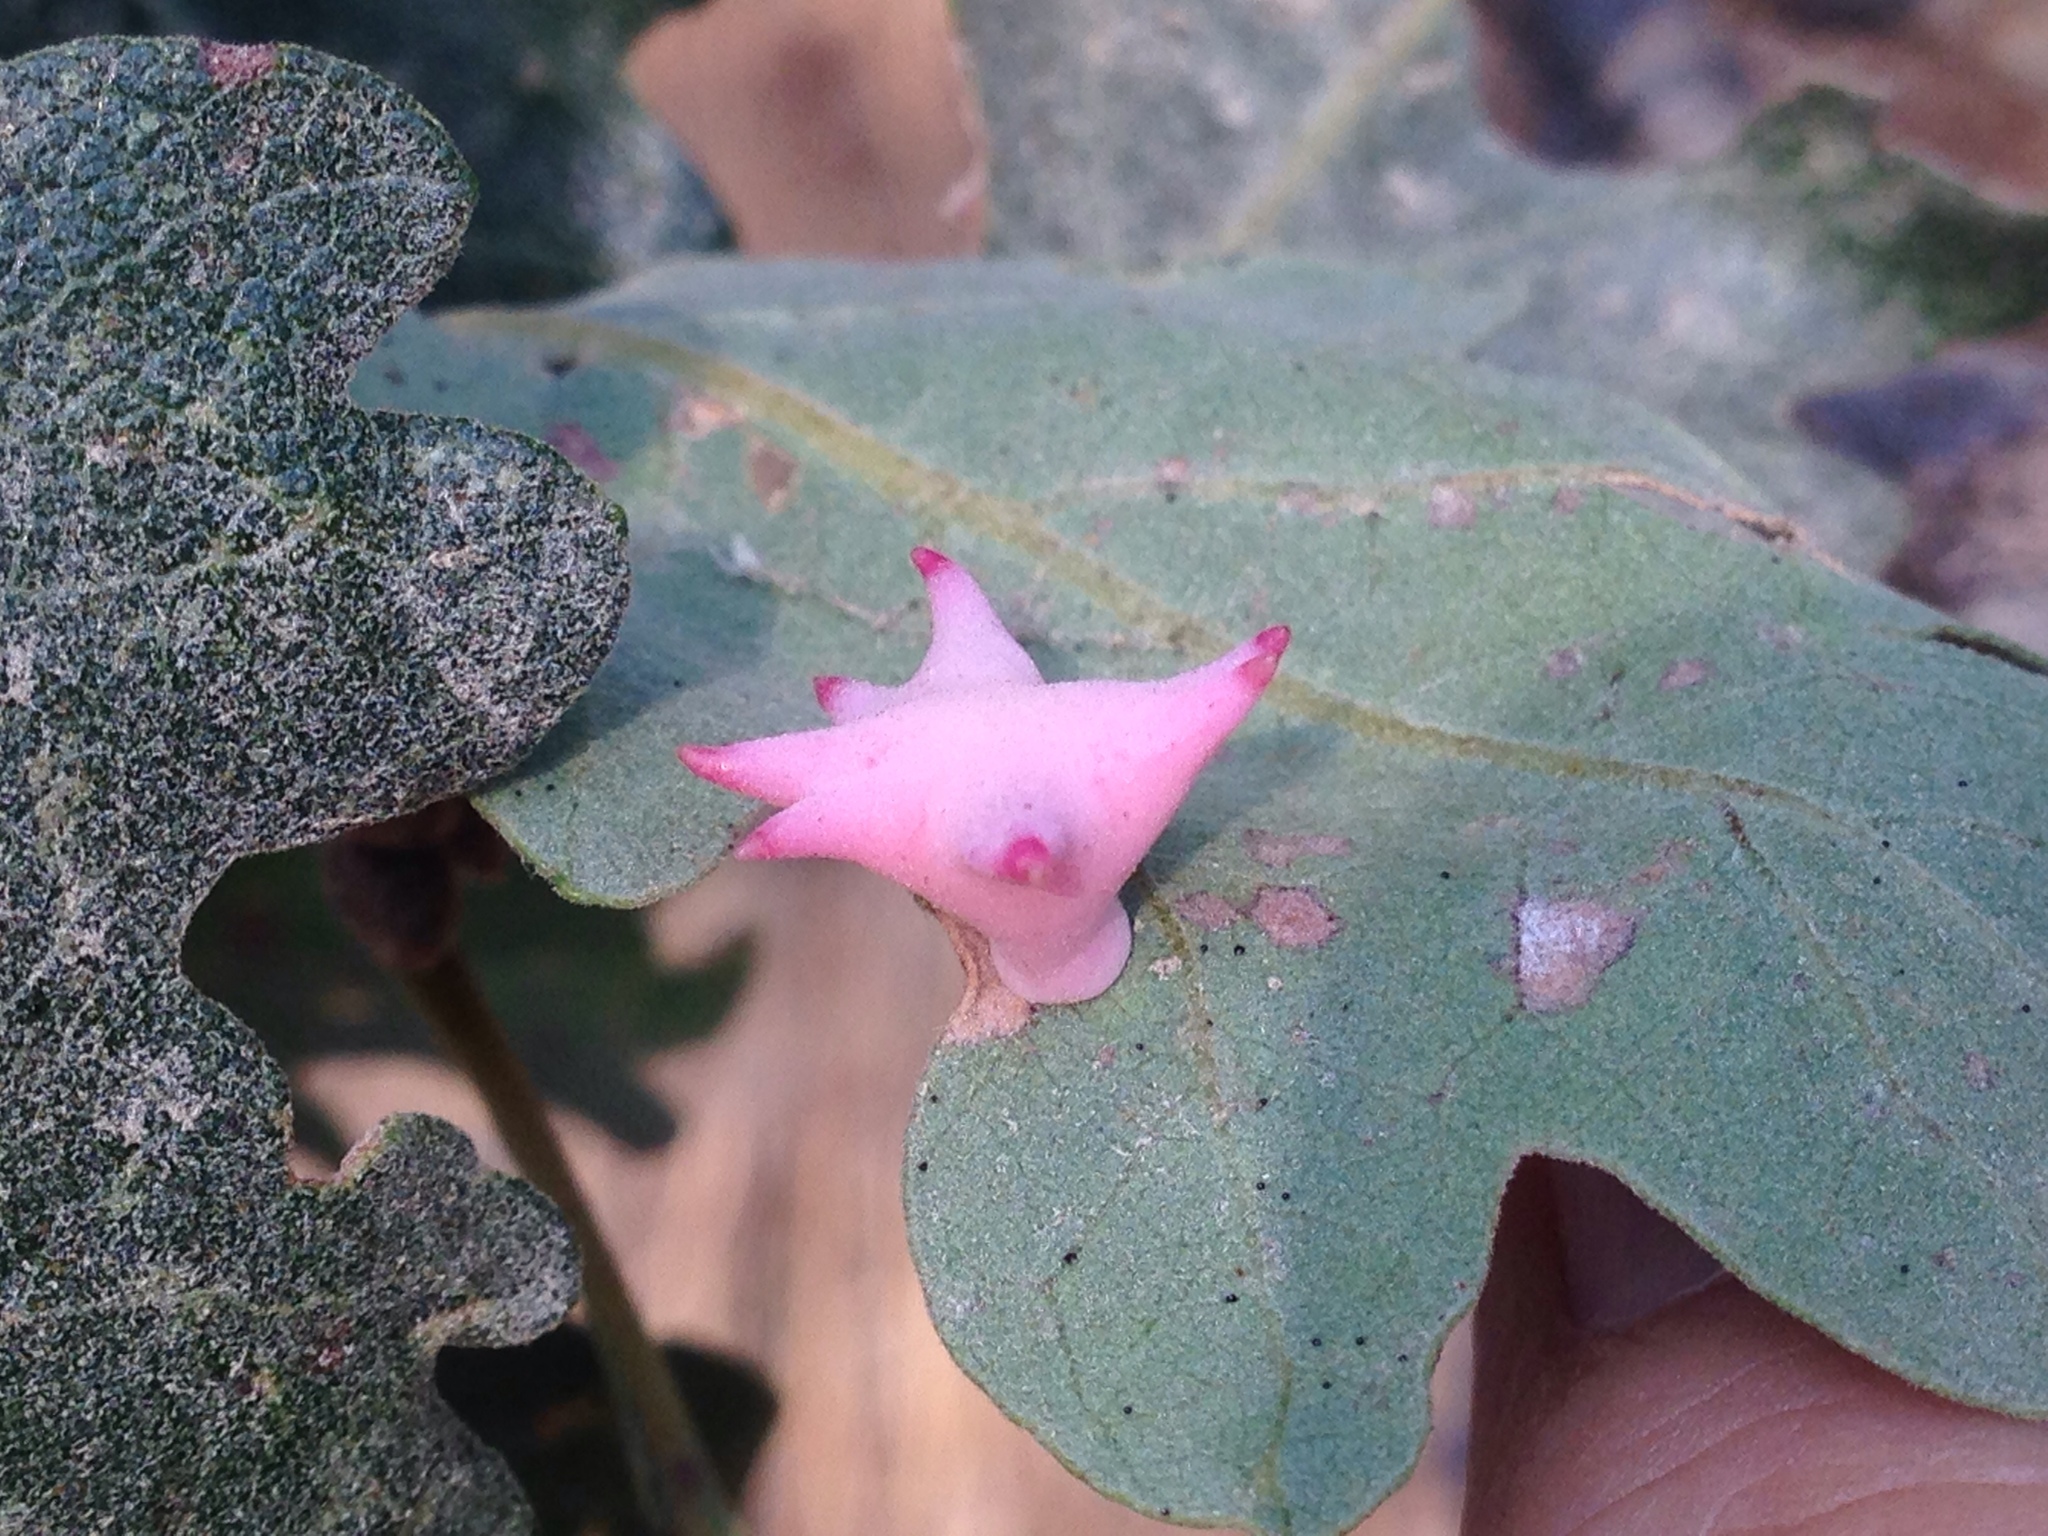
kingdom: Animalia
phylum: Arthropoda
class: Insecta
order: Hymenoptera
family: Cynipidae
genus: Cynips
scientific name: Cynips douglasi
